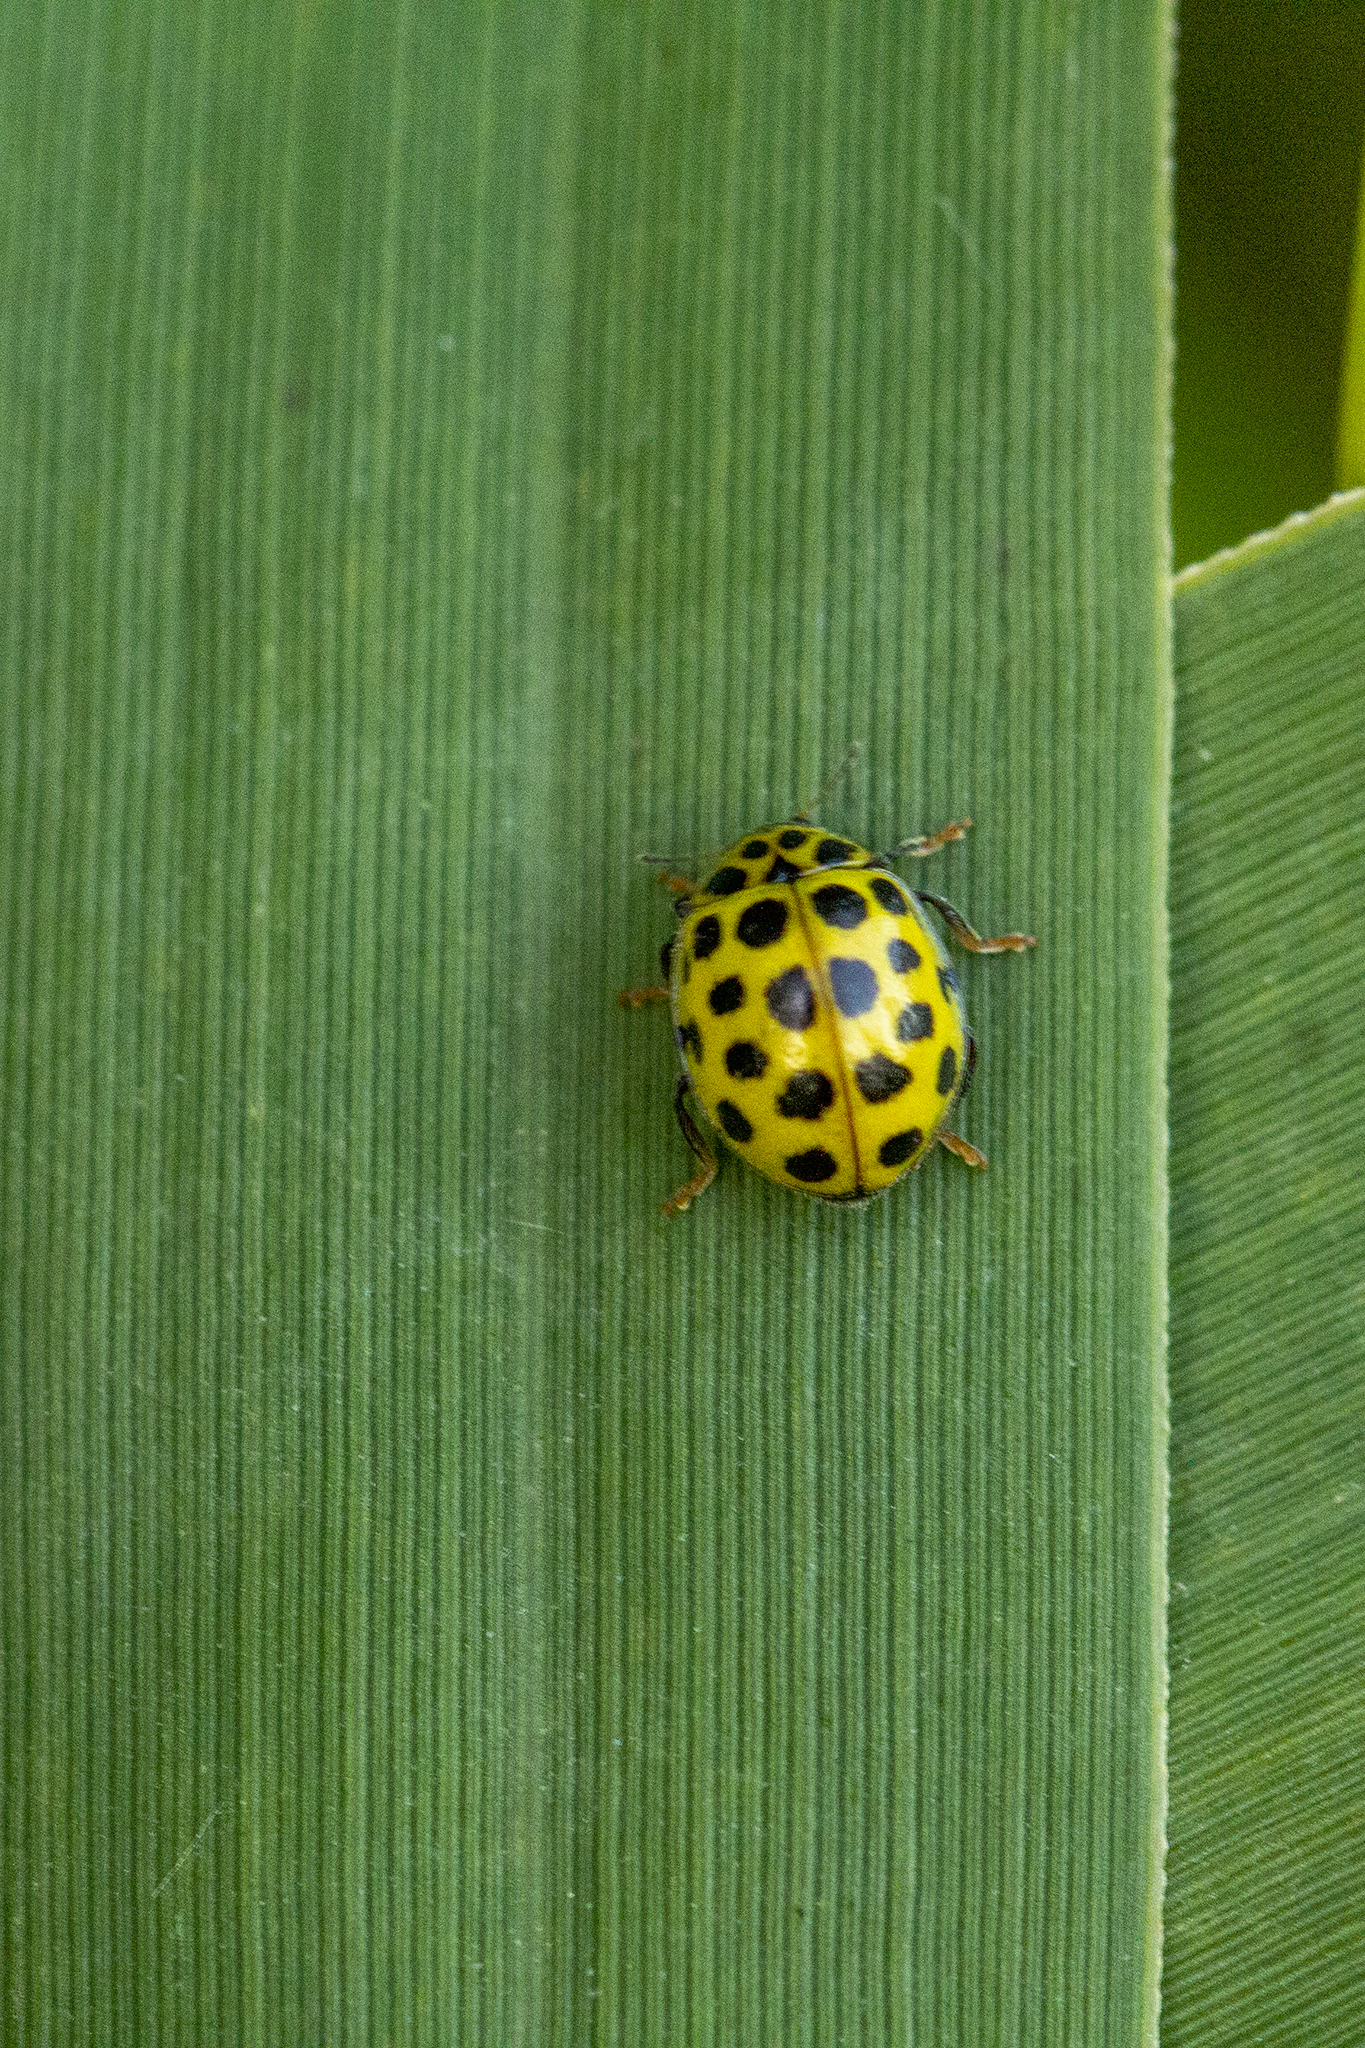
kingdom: Animalia
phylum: Arthropoda
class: Insecta
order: Coleoptera
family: Coccinellidae
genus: Psyllobora
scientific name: Psyllobora vigintiduopunctata
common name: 22-spot ladybird
